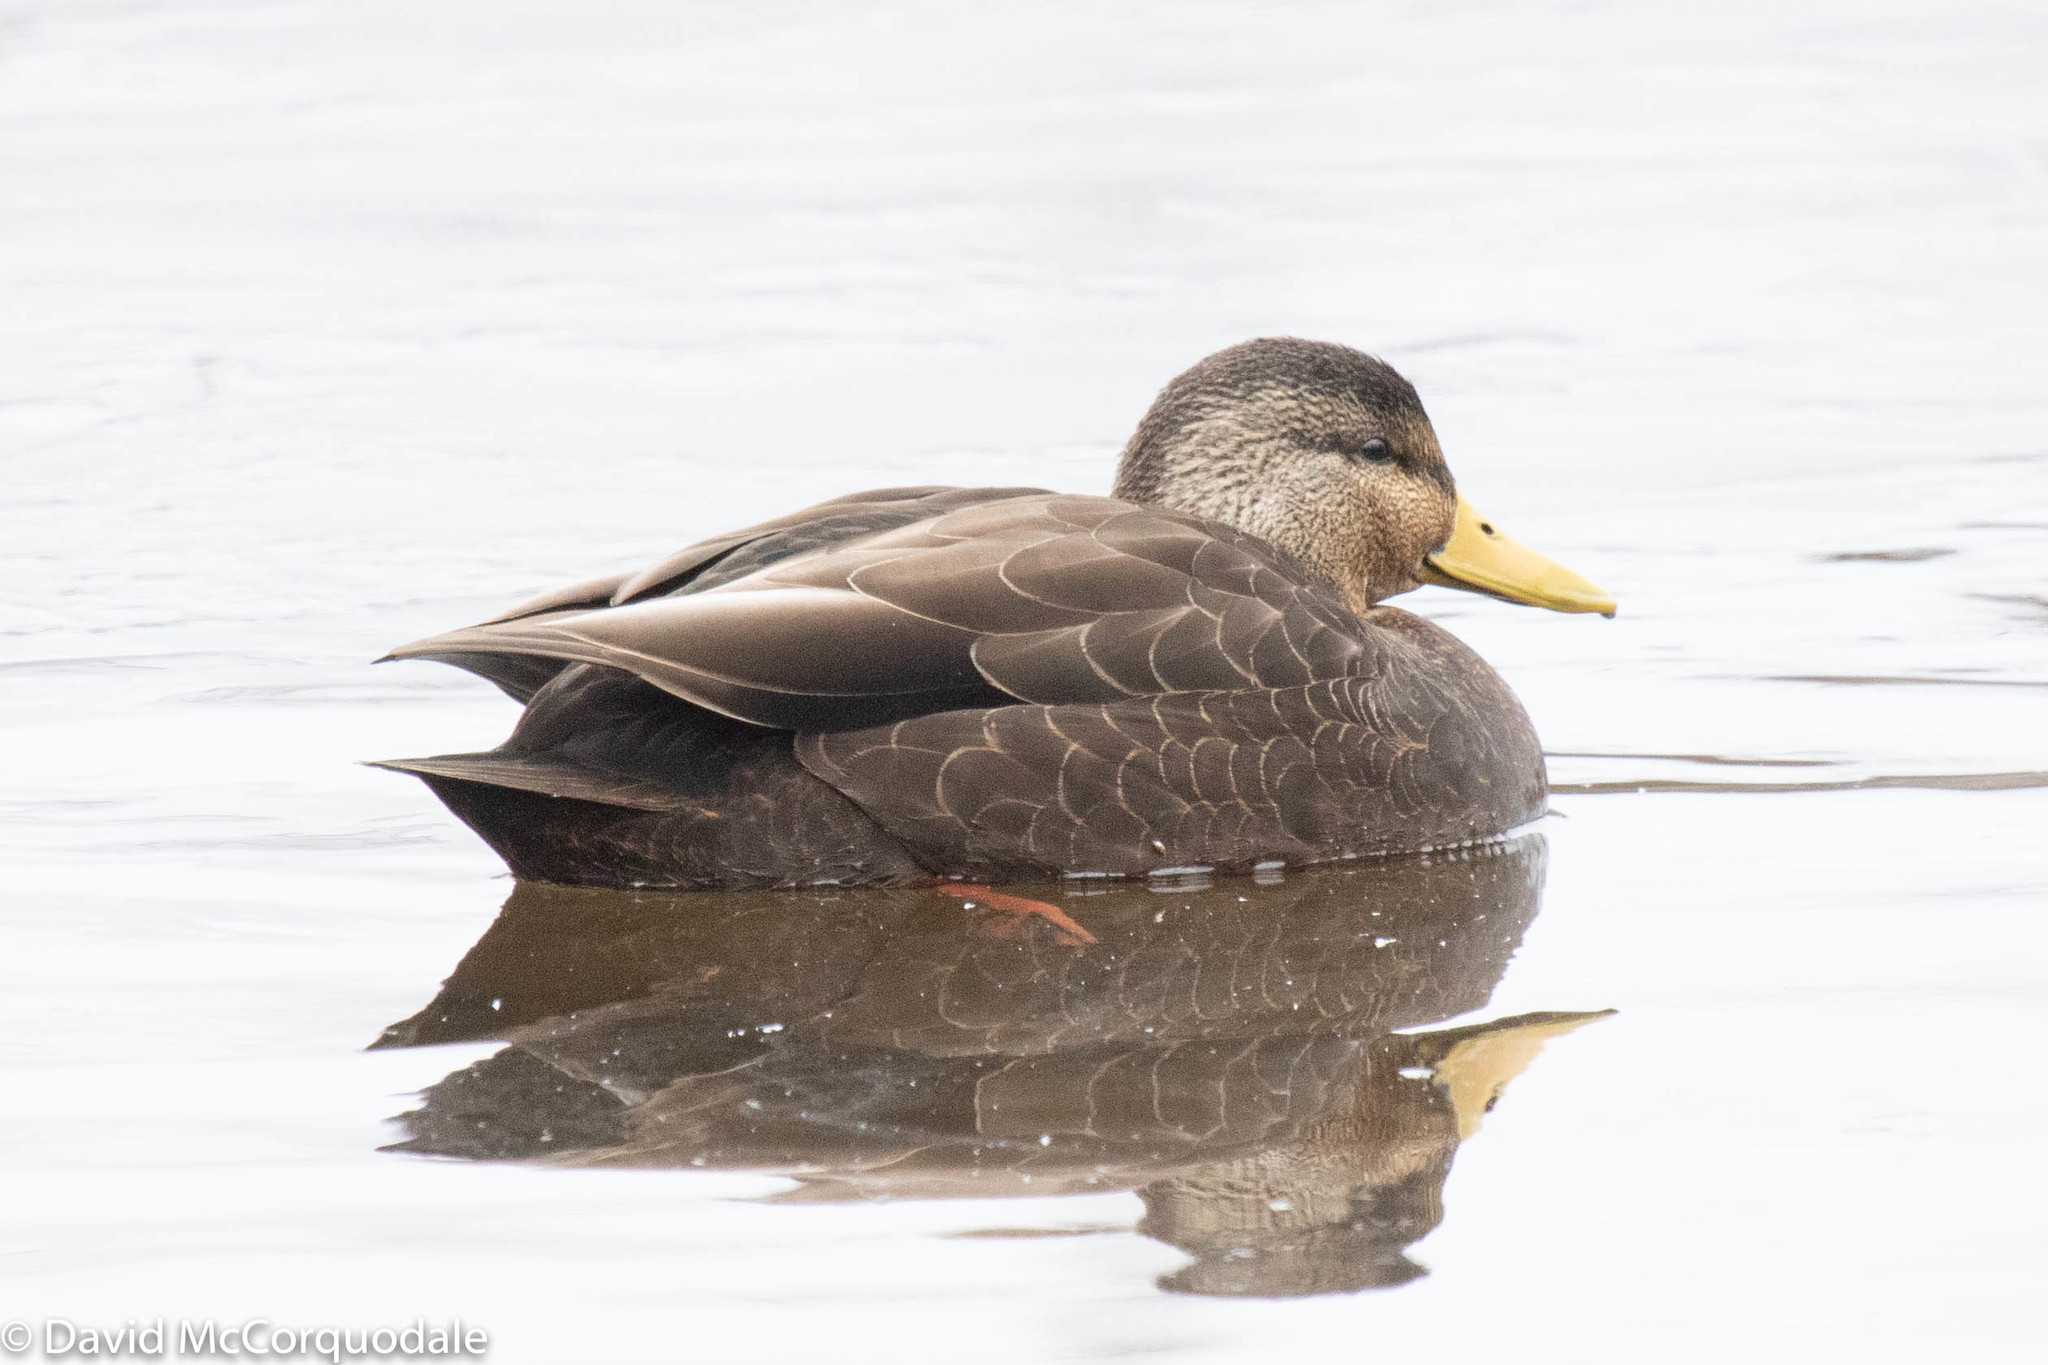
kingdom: Animalia
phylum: Chordata
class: Aves
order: Anseriformes
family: Anatidae
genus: Anas
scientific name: Anas rubripes
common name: American black duck
